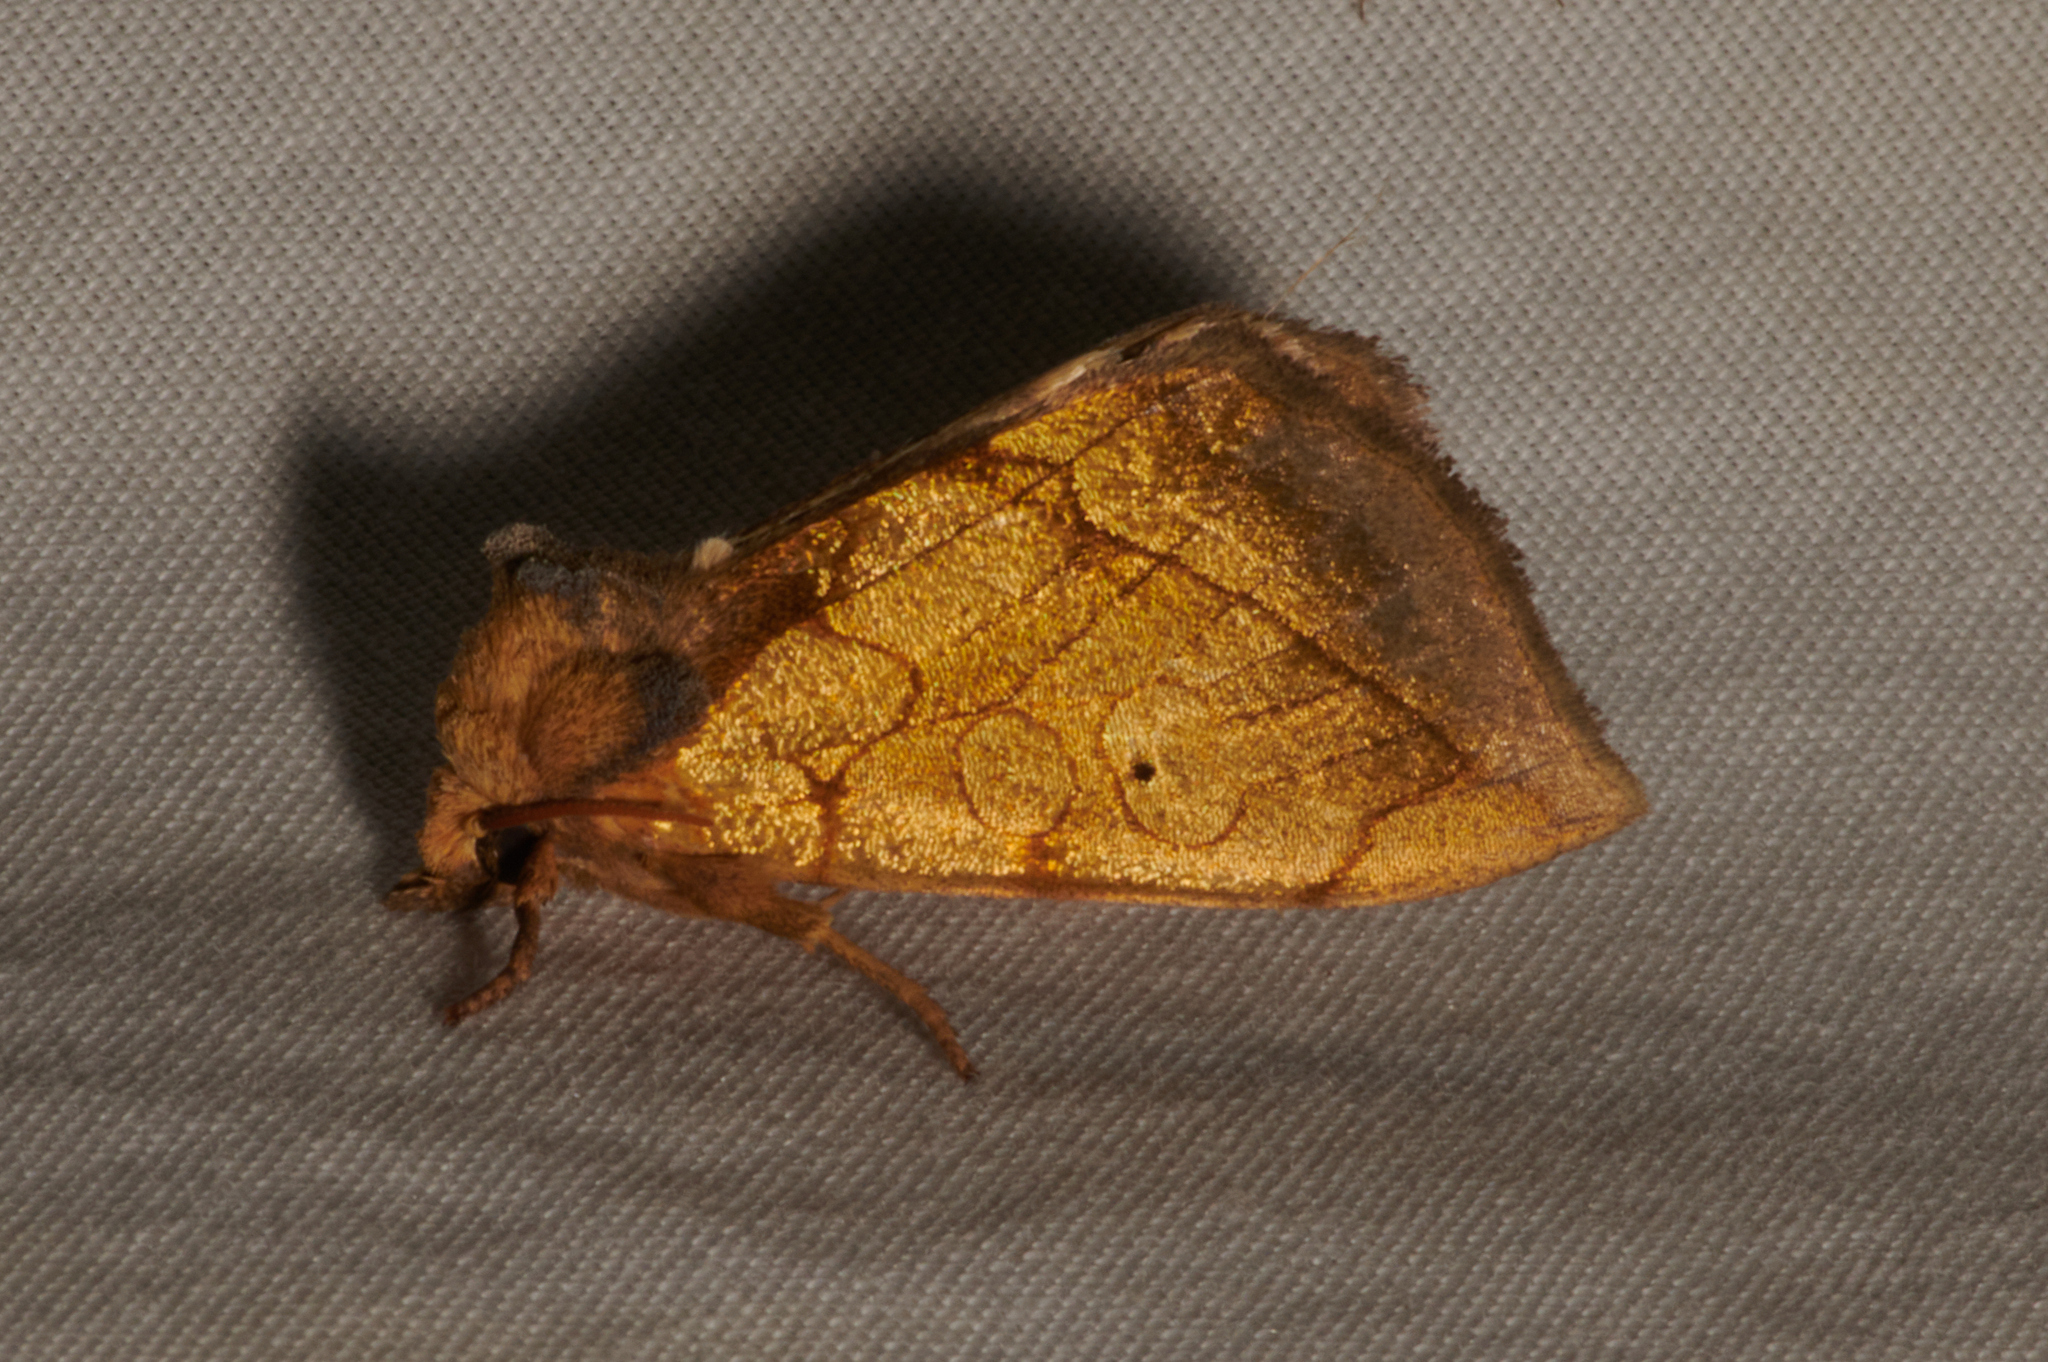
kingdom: Animalia
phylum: Arthropoda
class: Insecta
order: Lepidoptera
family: Noctuidae
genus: Basilodes
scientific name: Basilodes pepita
